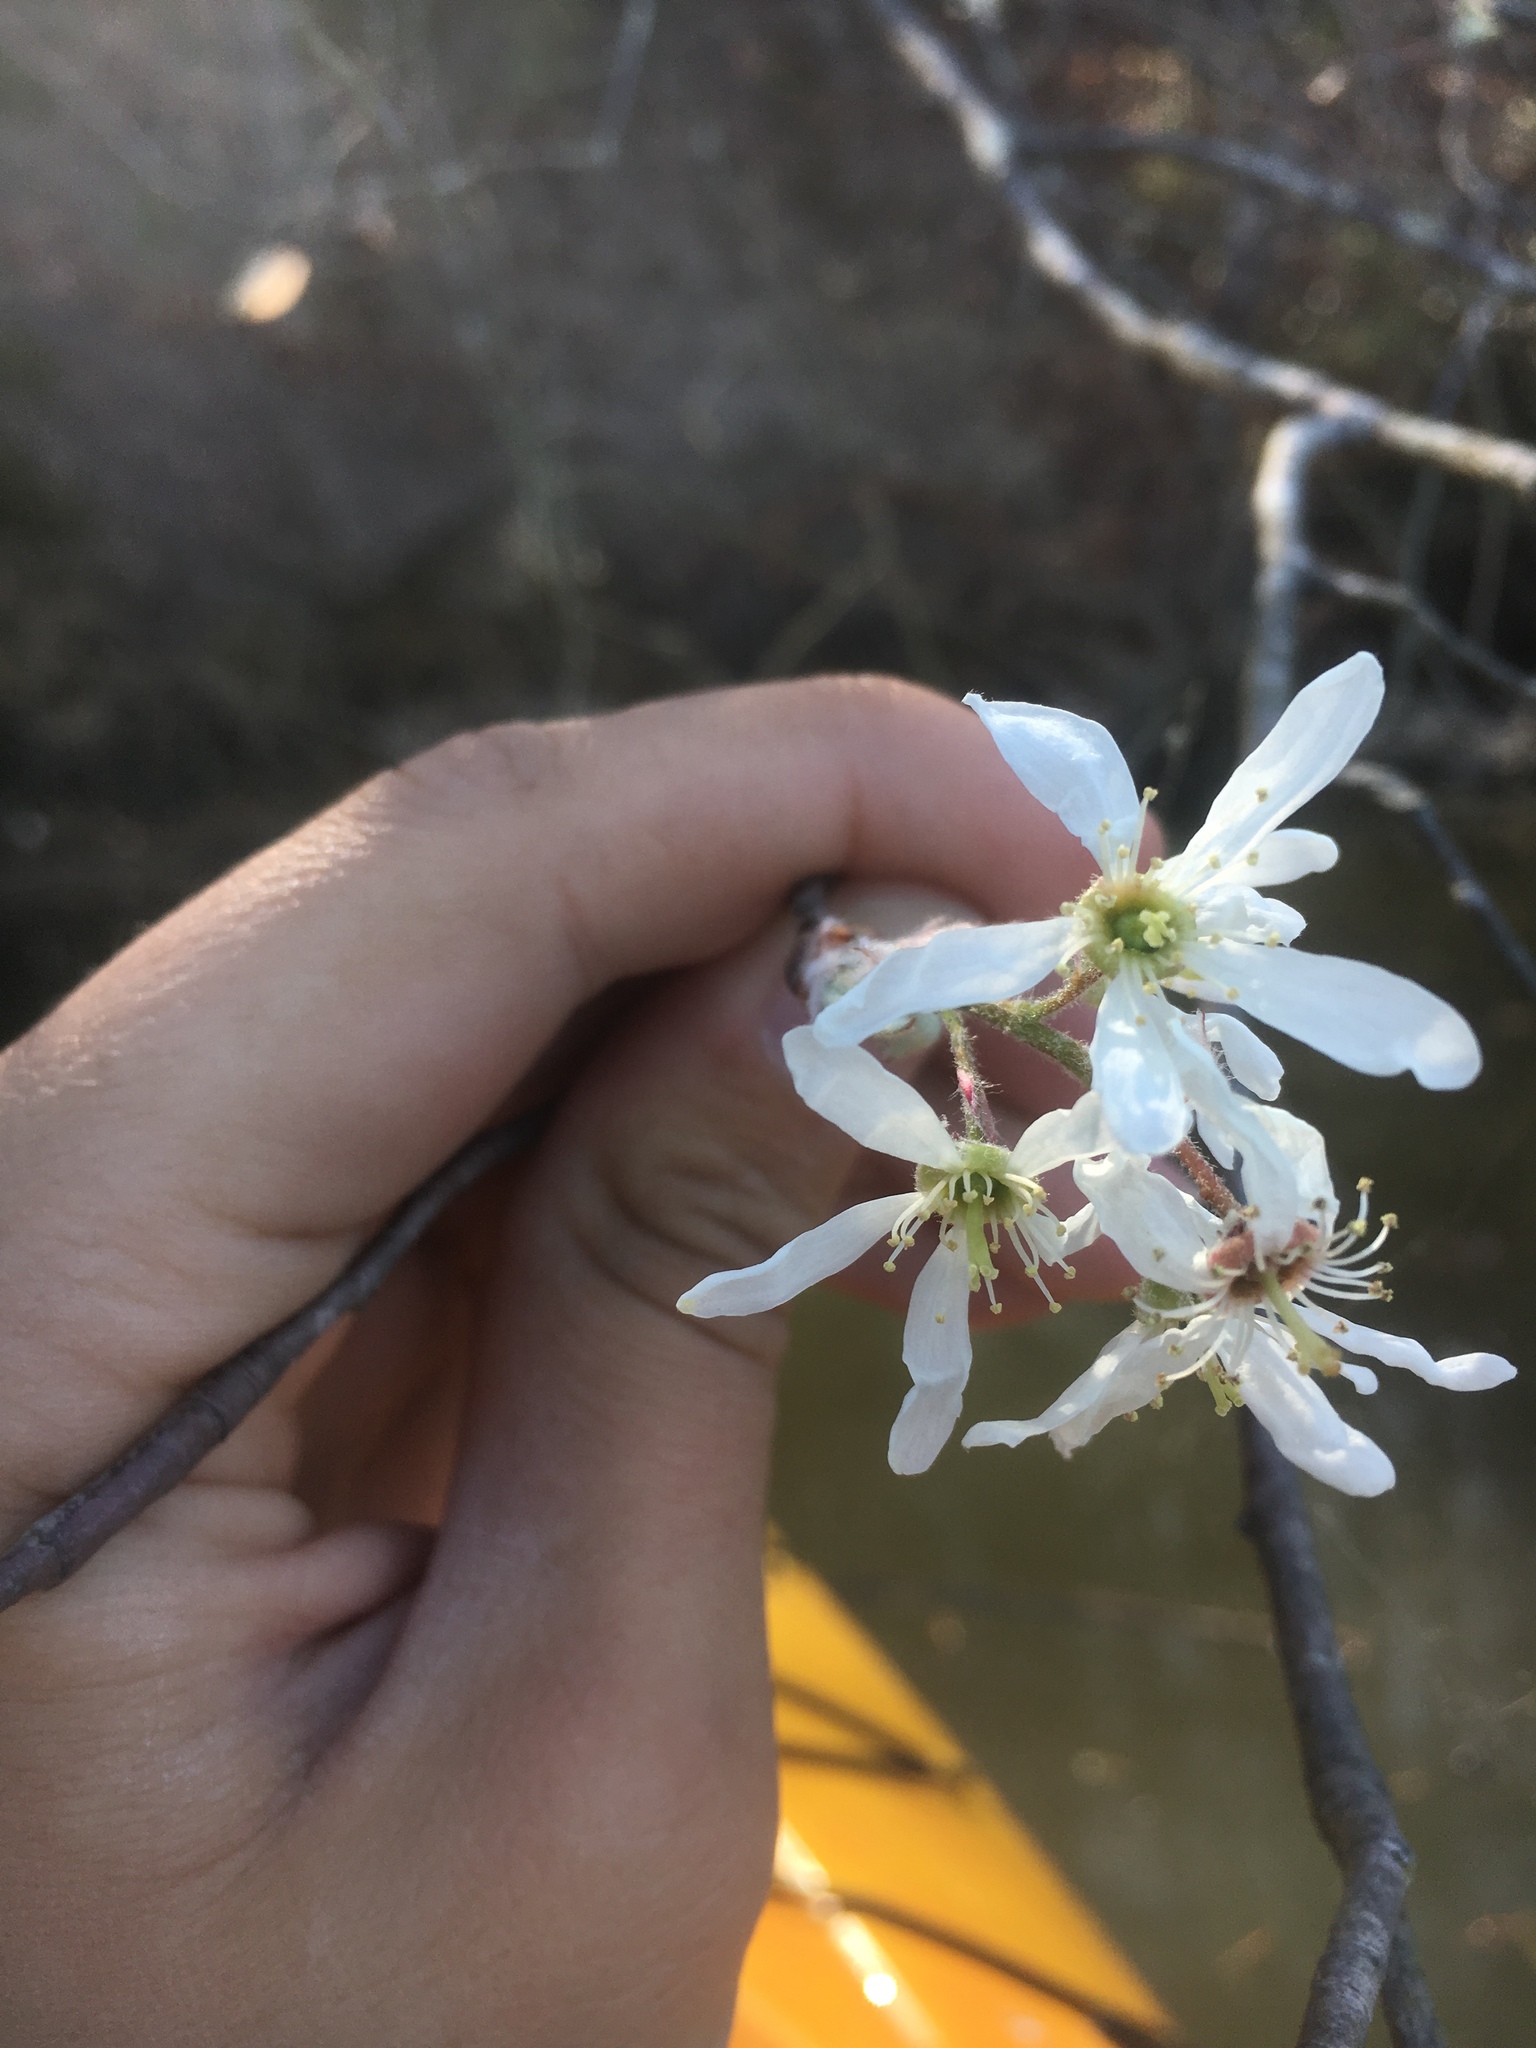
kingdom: Plantae
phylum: Tracheophyta
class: Magnoliopsida
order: Rosales
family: Rosaceae
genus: Amelanchier
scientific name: Amelanchier arborea
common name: Downy serviceberry
